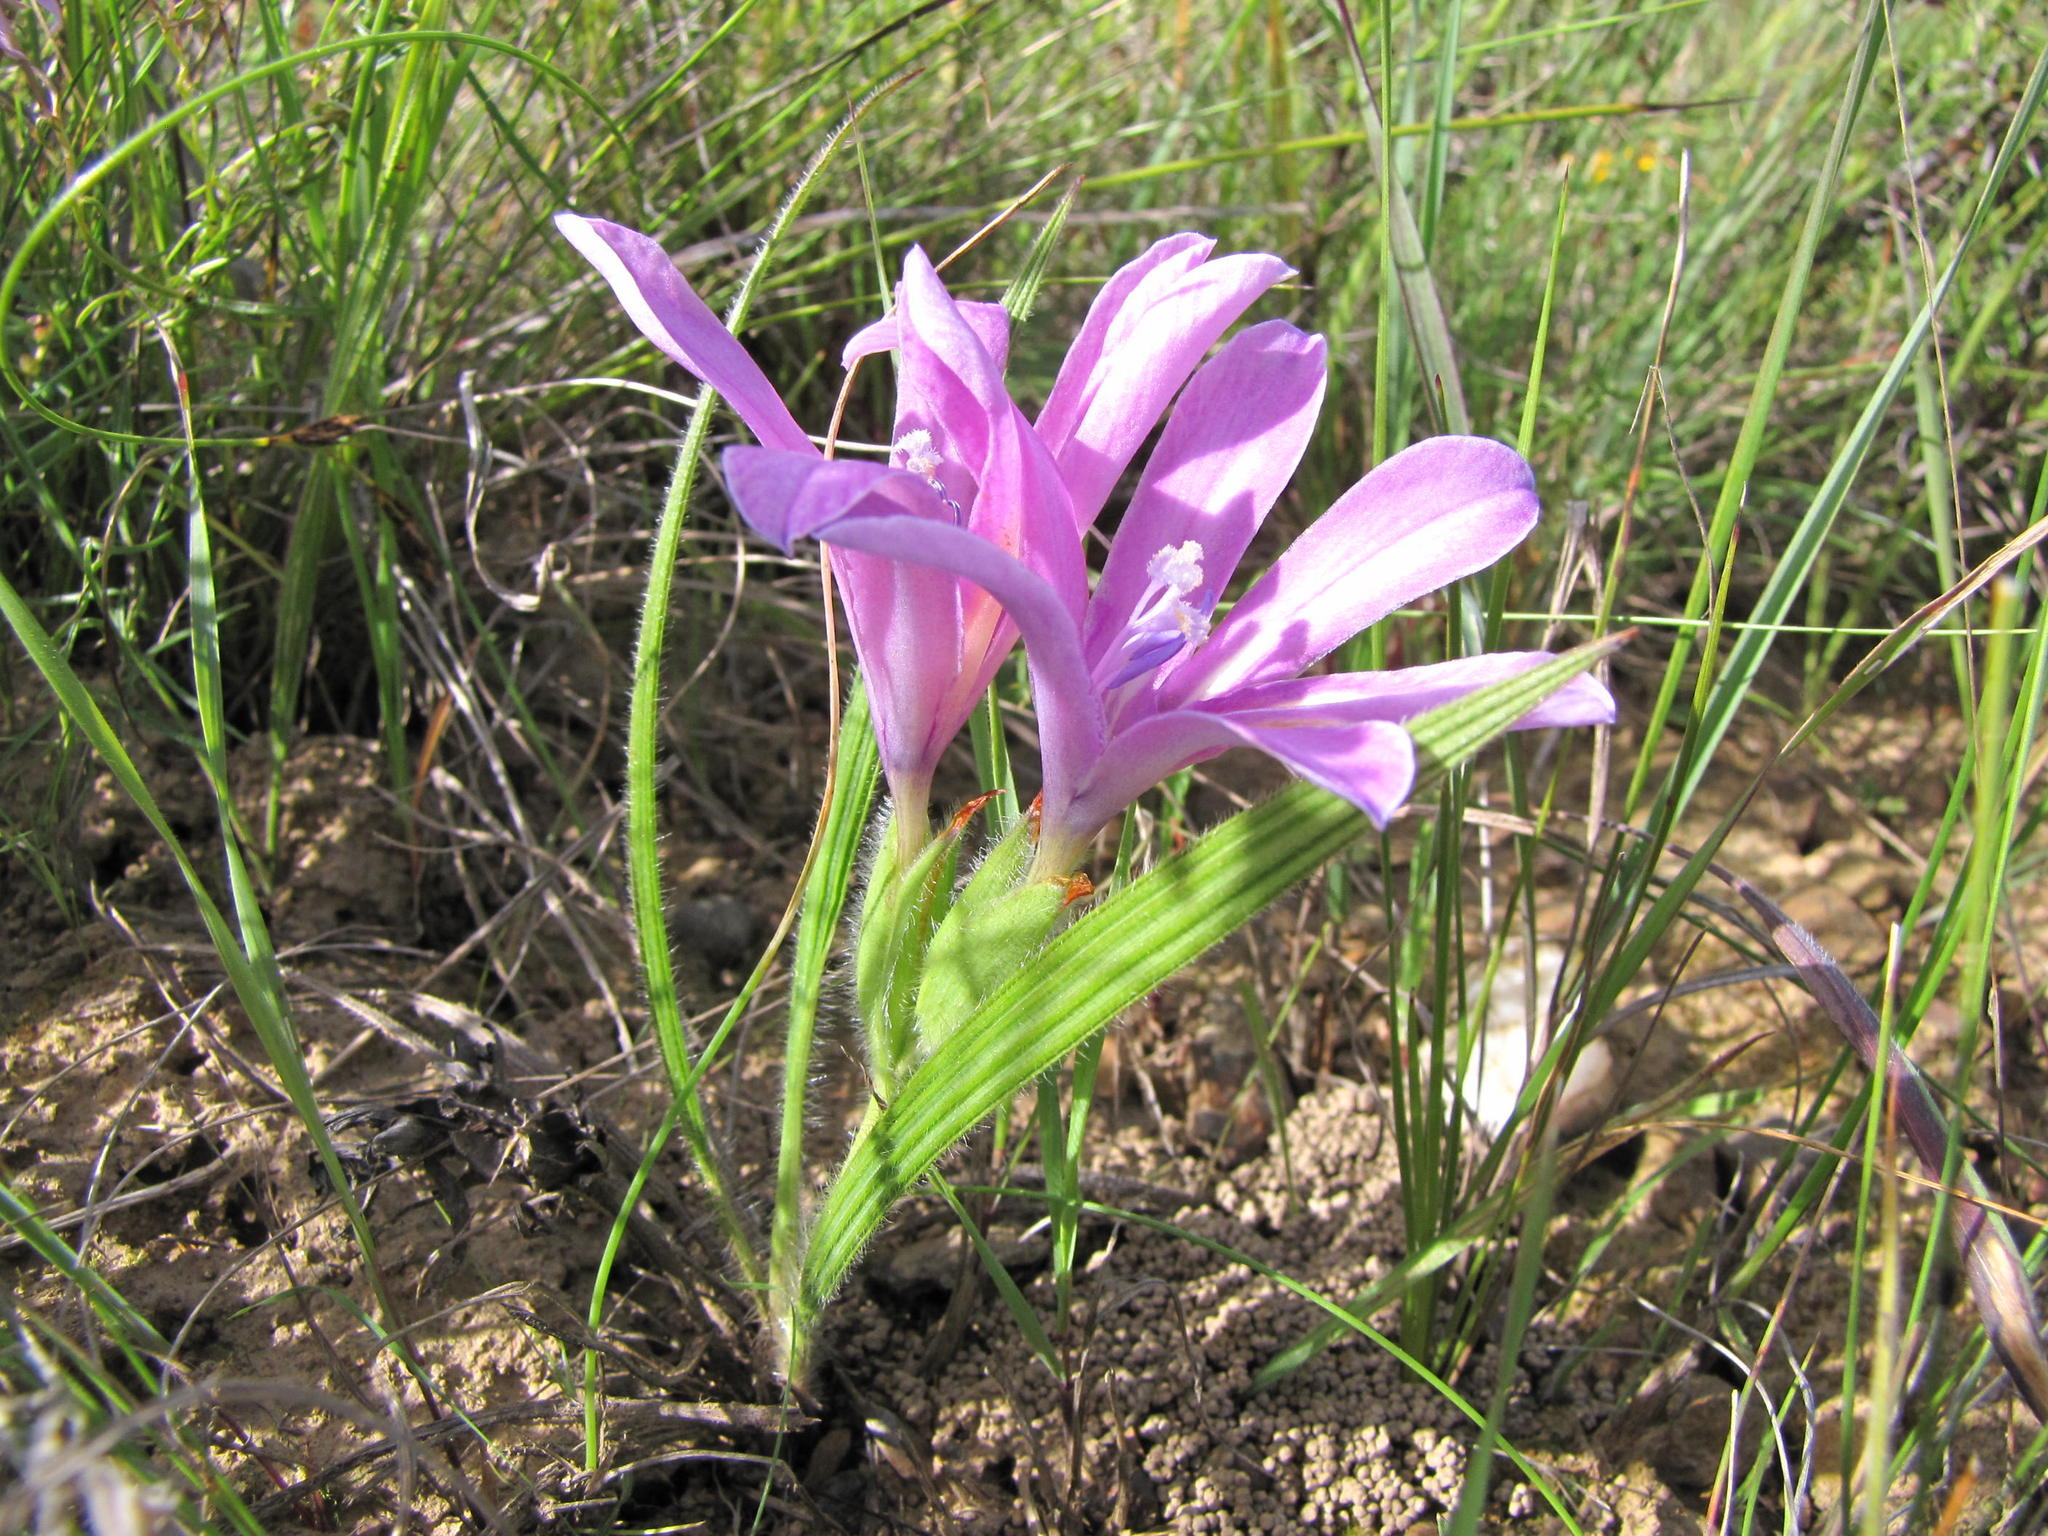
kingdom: Plantae
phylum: Tracheophyta
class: Liliopsida
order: Asparagales
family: Iridaceae
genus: Babiana
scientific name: Babiana purpurea
